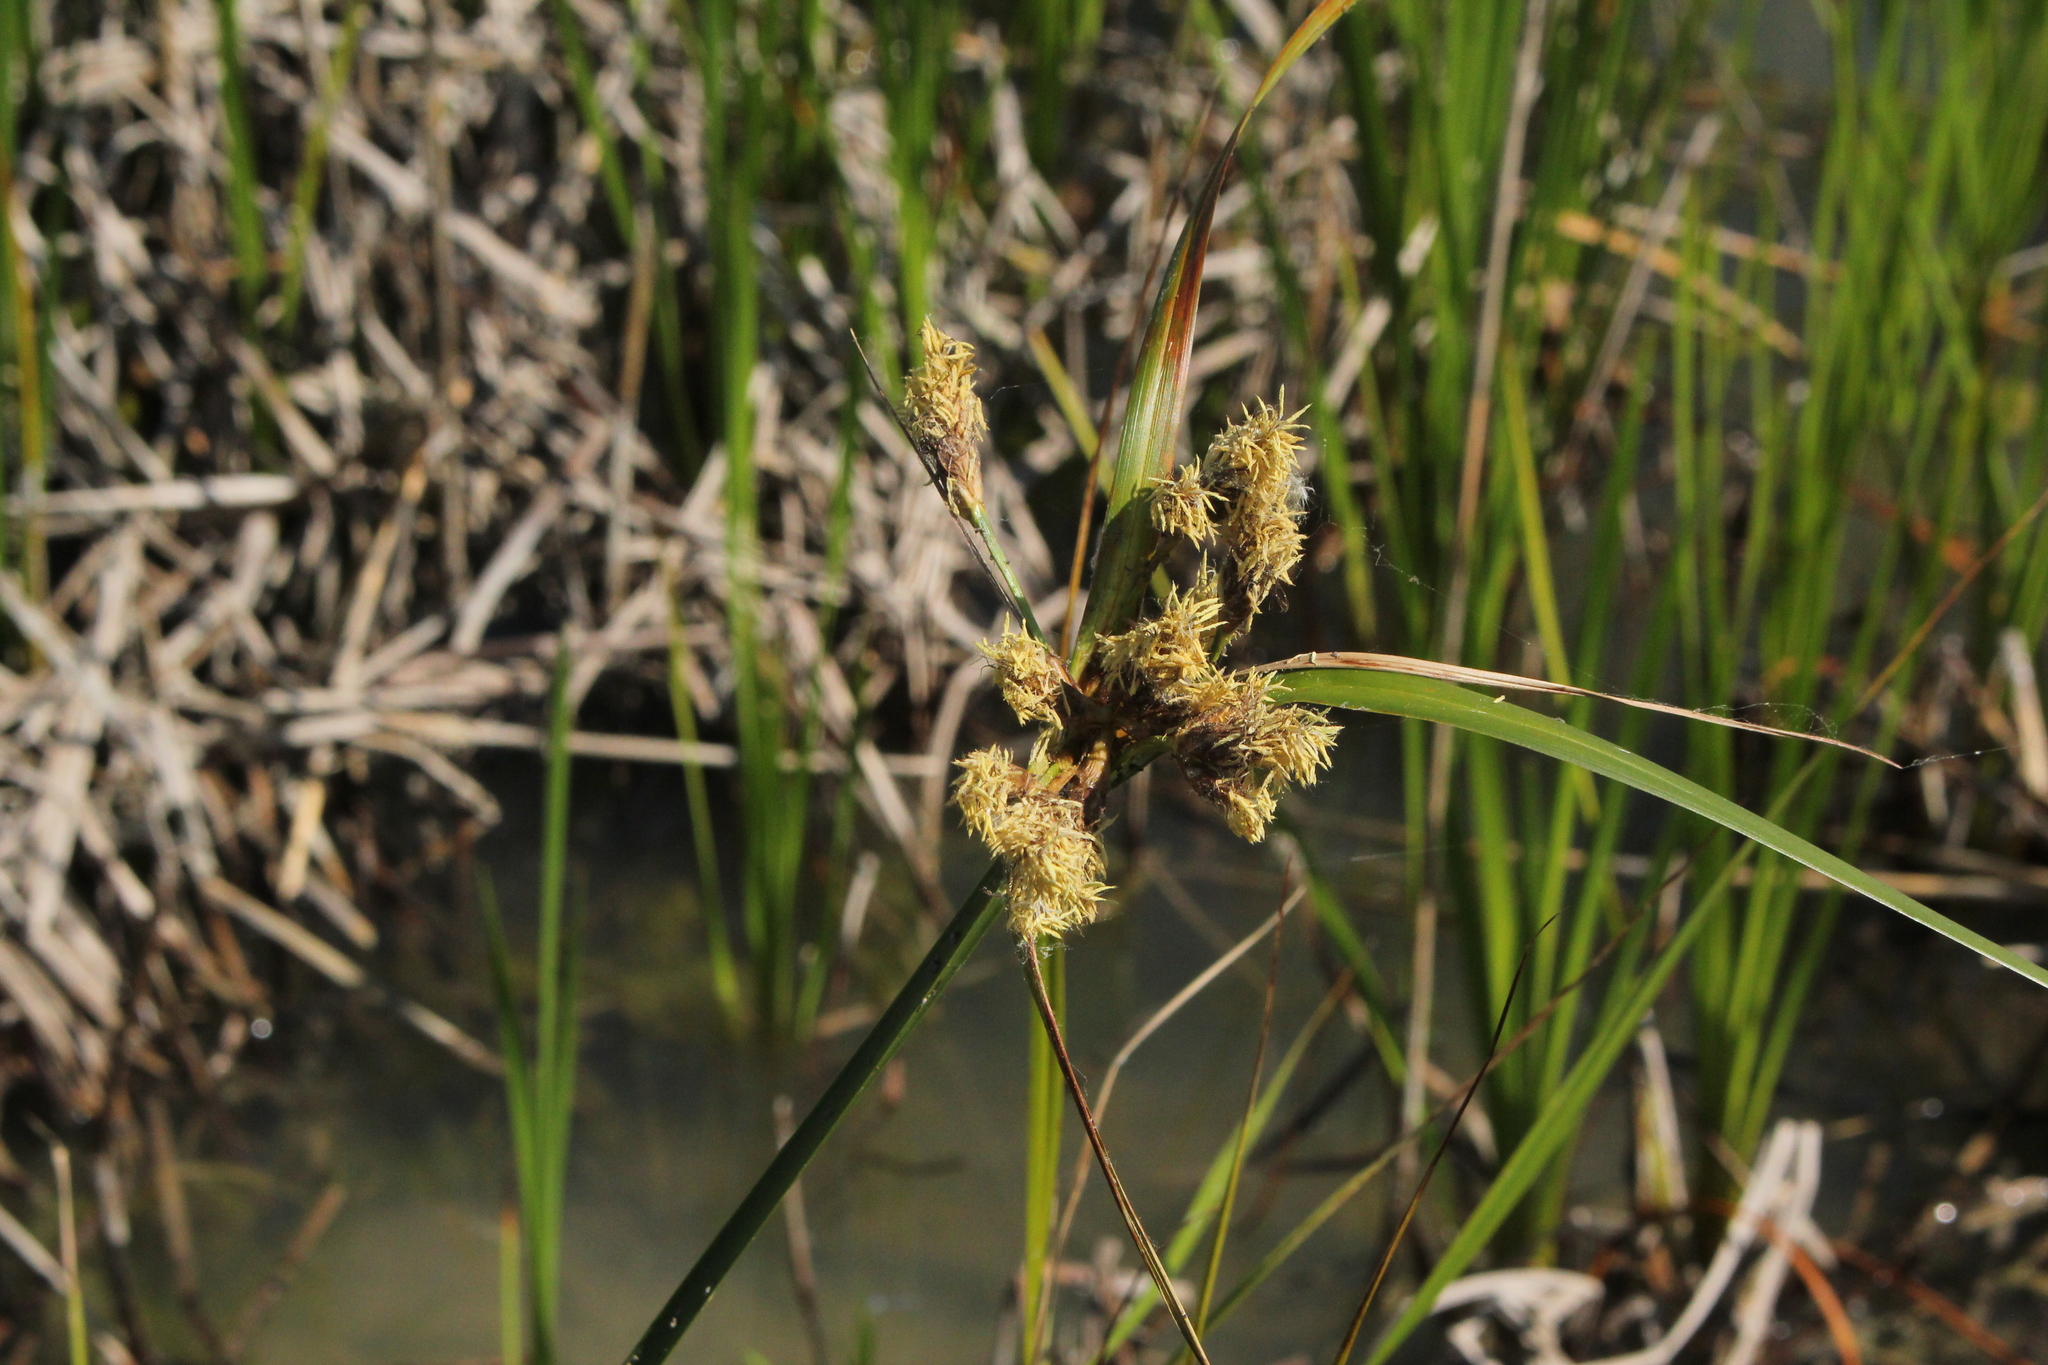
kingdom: Plantae
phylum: Tracheophyta
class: Liliopsida
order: Poales
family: Cyperaceae
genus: Bolboschoenus
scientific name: Bolboschoenus fluviatilis
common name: River bulrush
